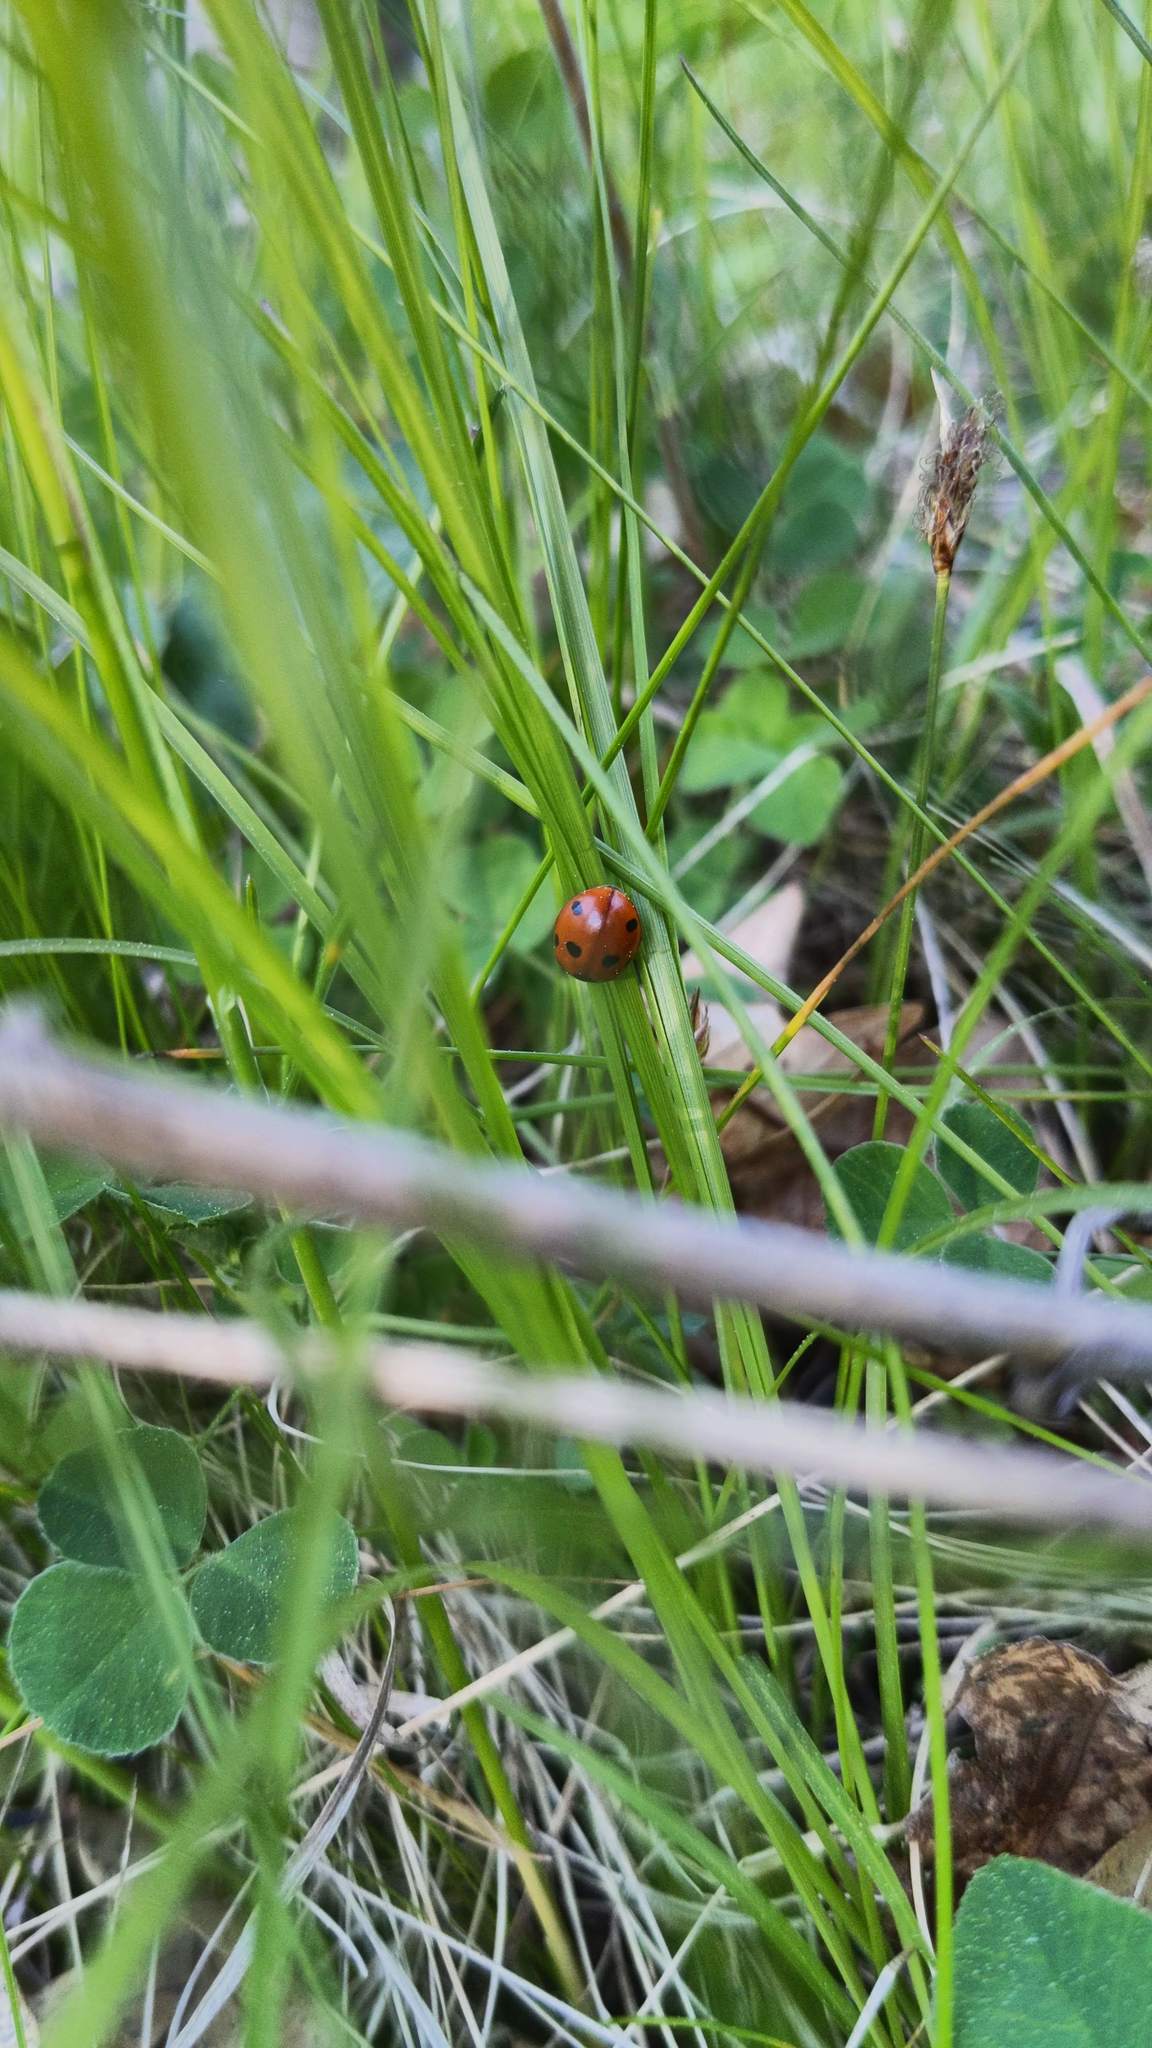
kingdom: Animalia
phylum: Arthropoda
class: Insecta
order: Coleoptera
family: Coccinellidae
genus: Coccinella
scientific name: Coccinella septempunctata
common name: Sevenspotted lady beetle
